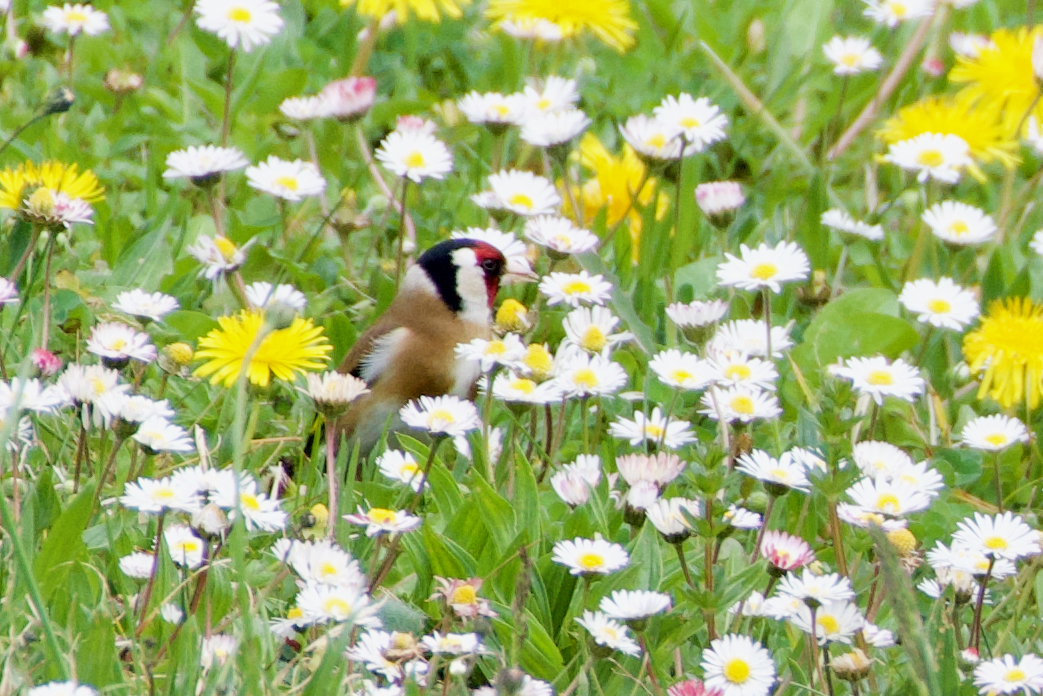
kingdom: Animalia
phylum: Chordata
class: Aves
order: Passeriformes
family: Fringillidae
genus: Carduelis
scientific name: Carduelis carduelis
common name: European goldfinch
